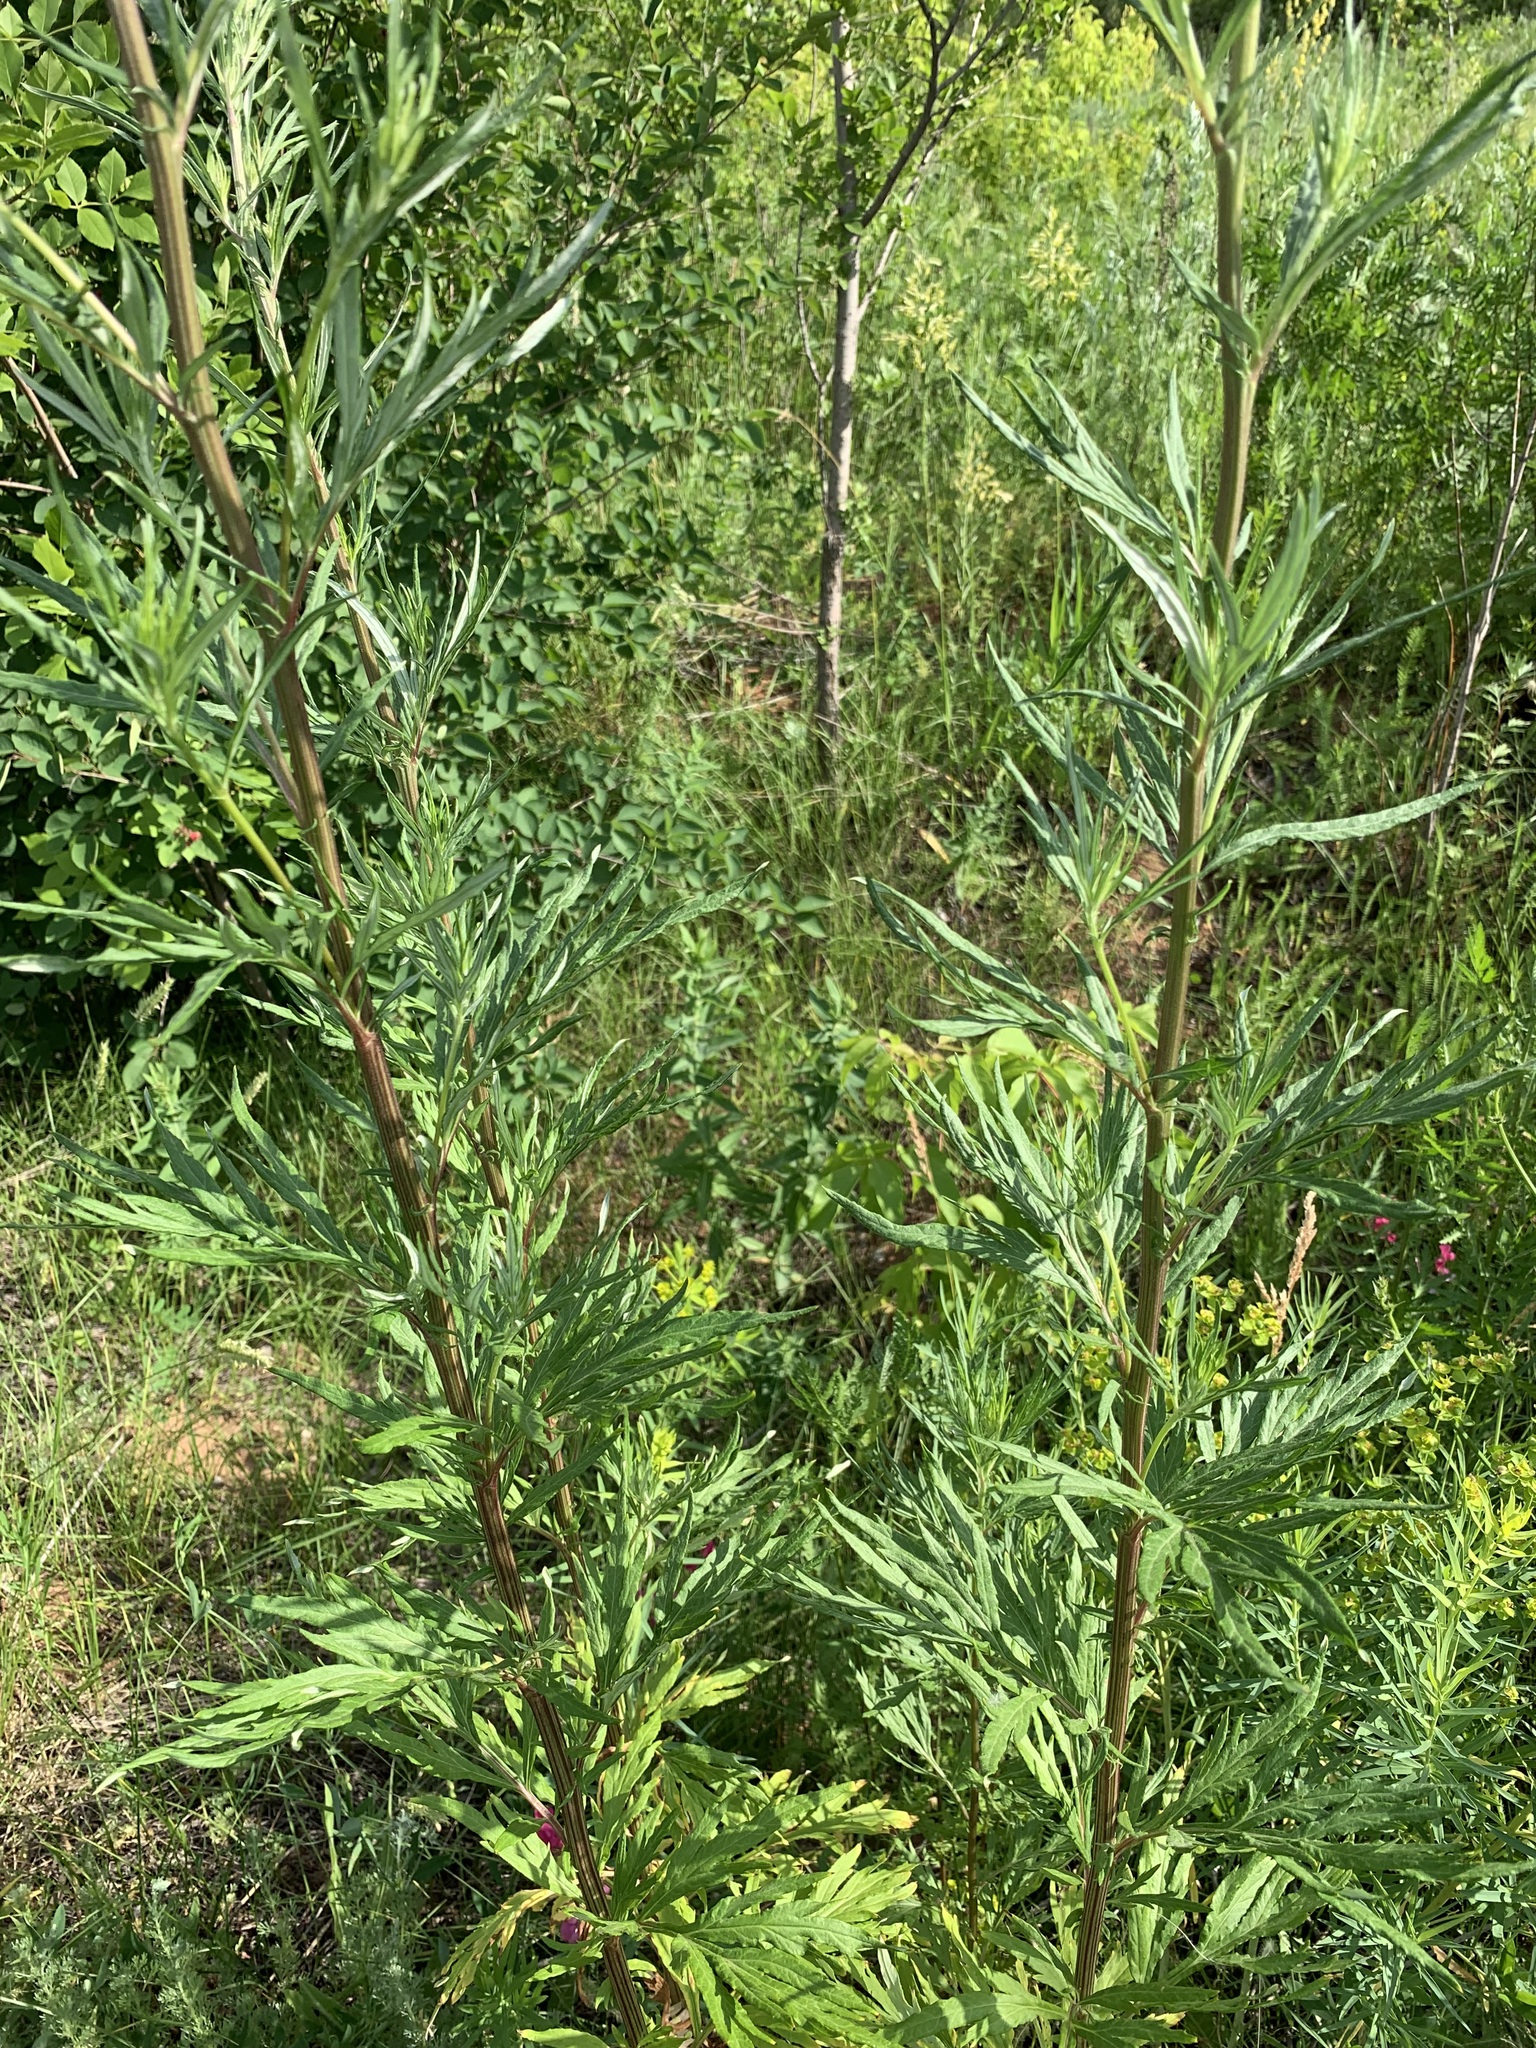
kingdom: Plantae
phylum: Tracheophyta
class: Magnoliopsida
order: Asterales
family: Asteraceae
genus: Artemisia
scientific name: Artemisia vulgaris
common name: Mugwort
